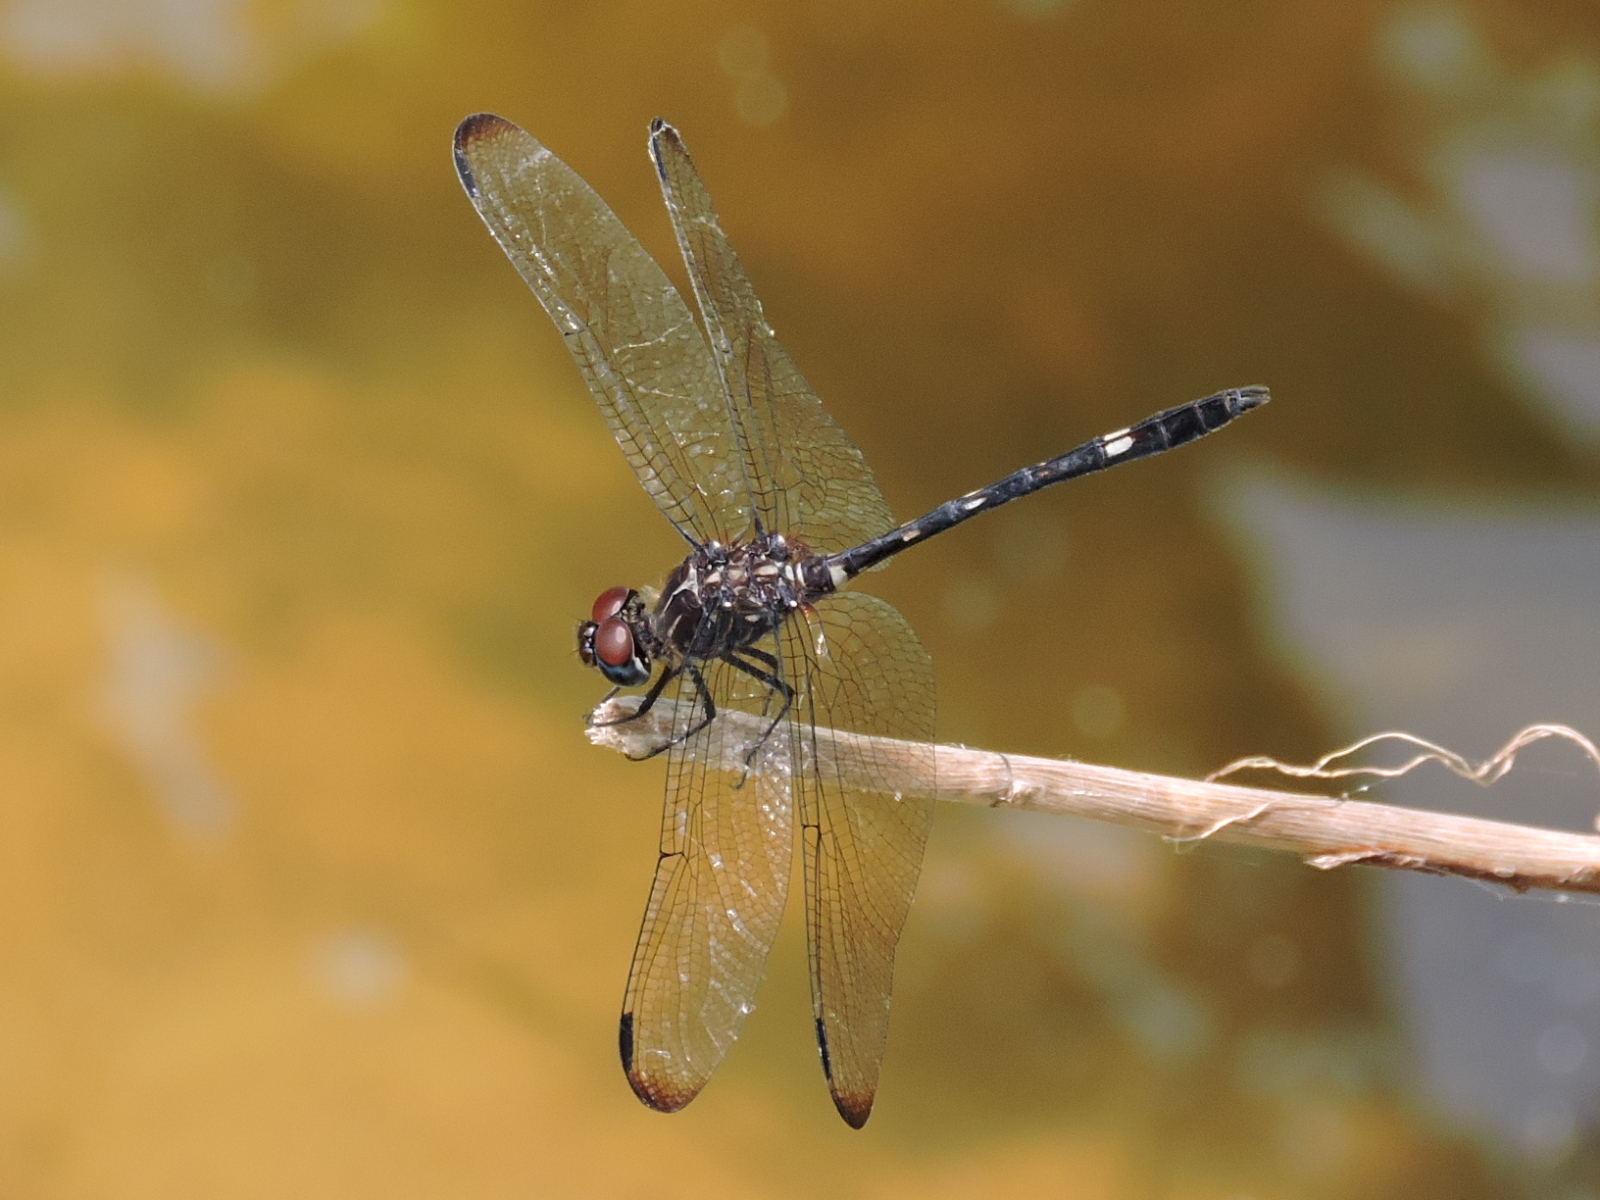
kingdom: Animalia
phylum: Arthropoda
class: Insecta
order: Odonata
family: Libellulidae
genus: Dythemis
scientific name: Dythemis velox
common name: Swift setwing
